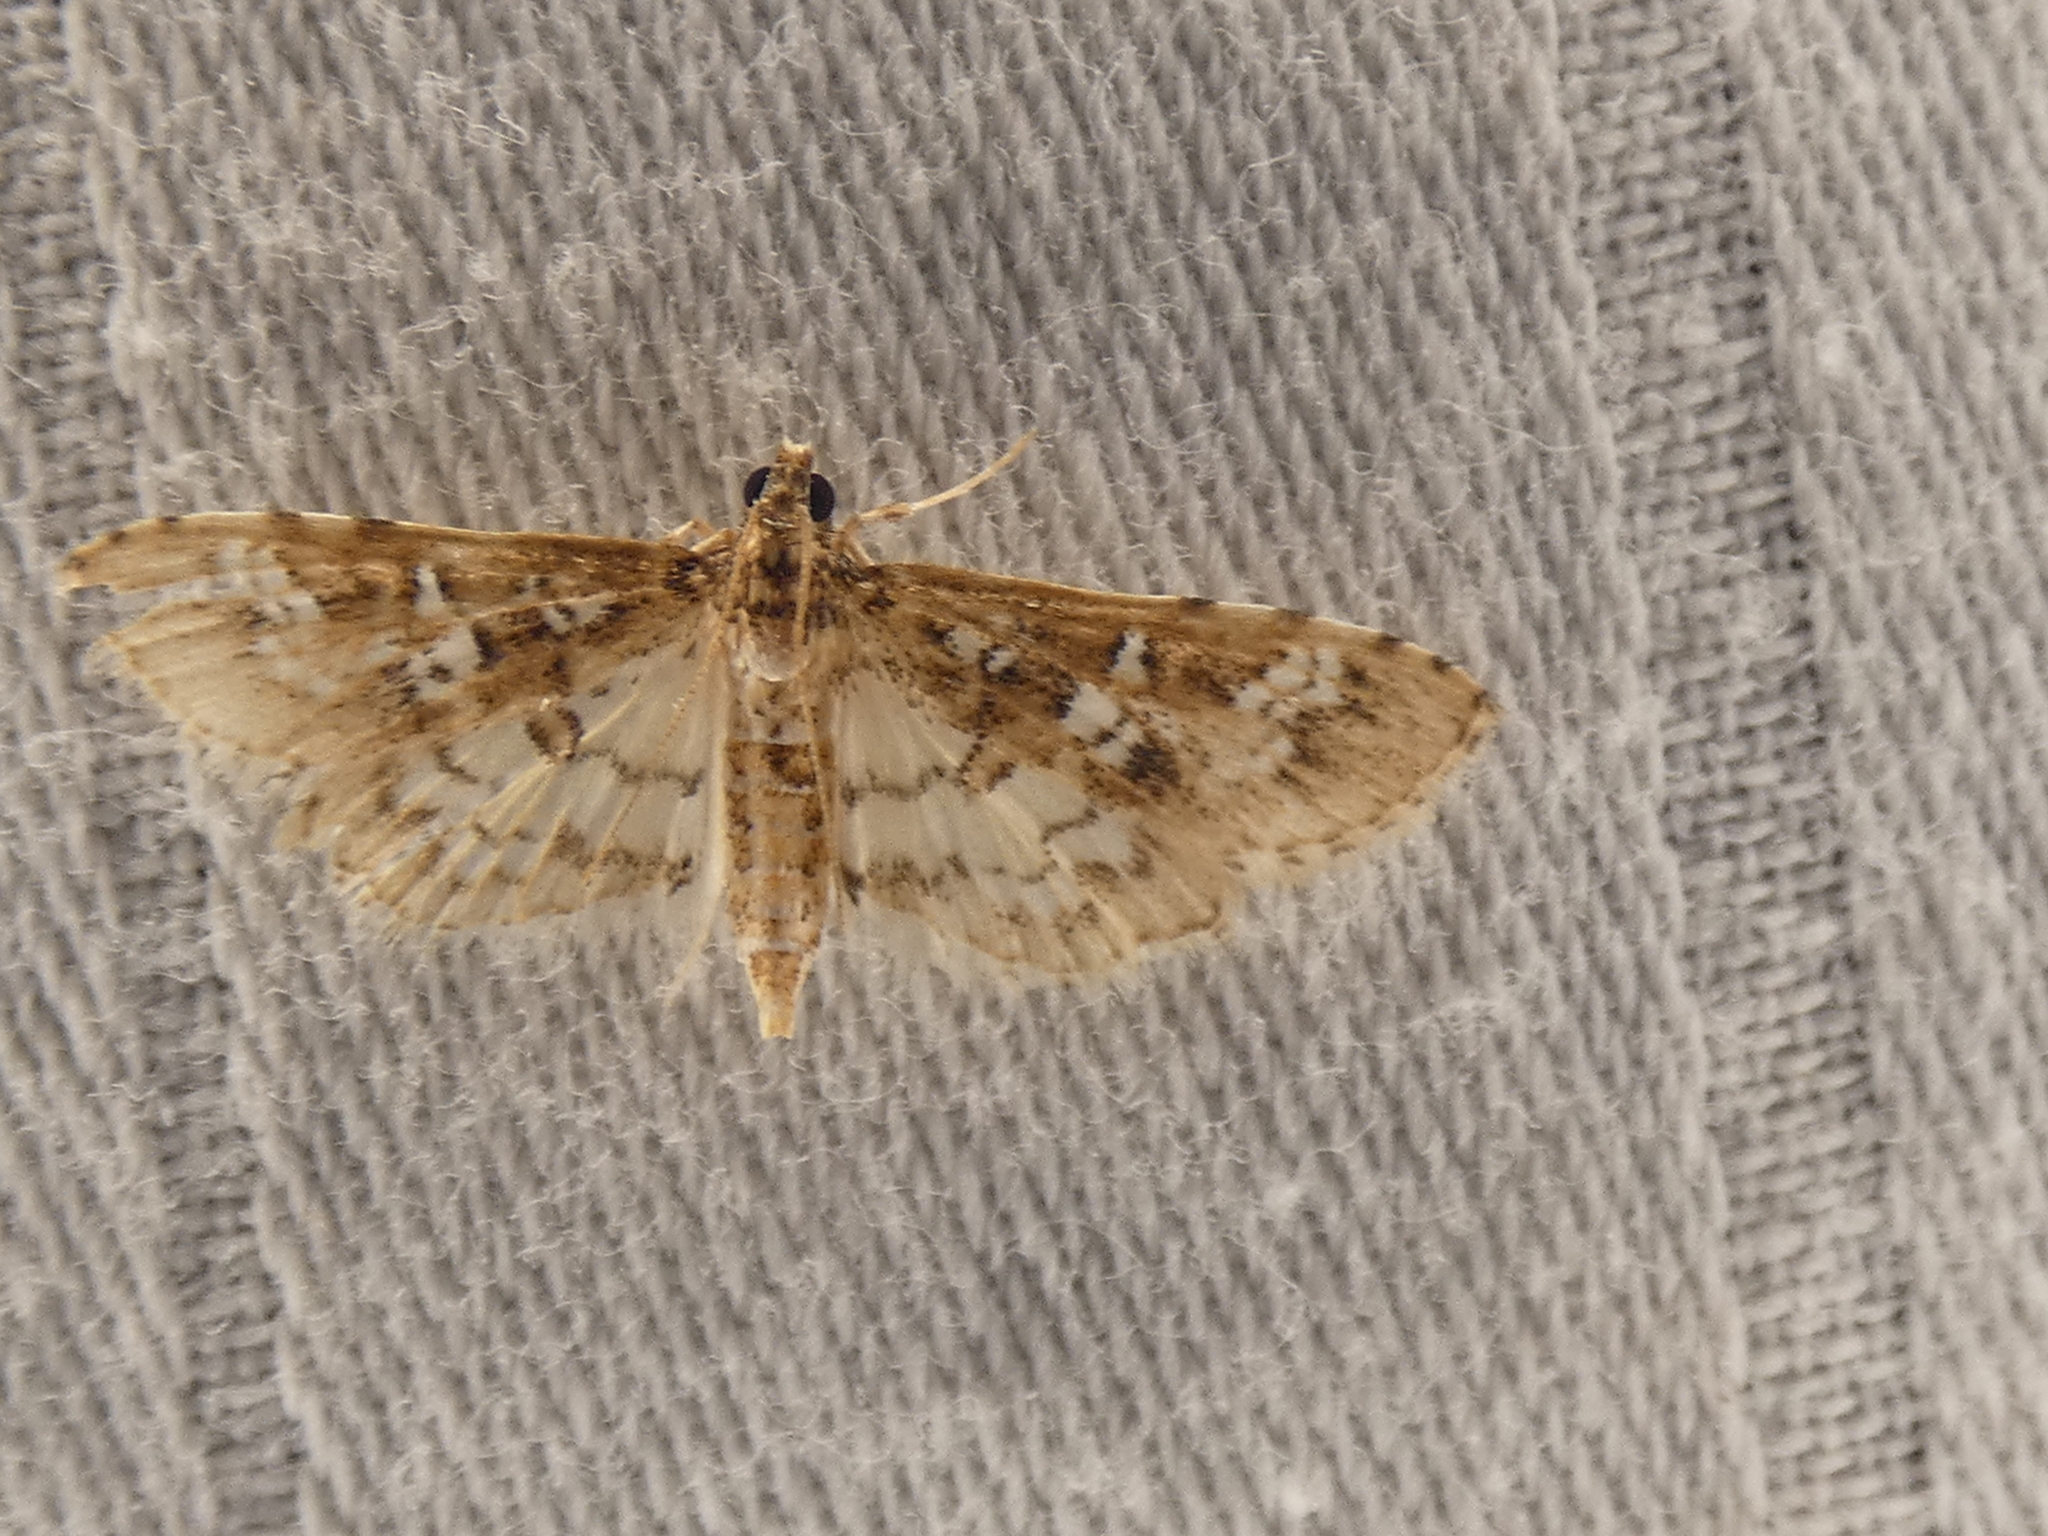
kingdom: Animalia
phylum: Arthropoda
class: Insecta
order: Lepidoptera
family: Crambidae
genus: Samea
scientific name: Samea multiplicalis
